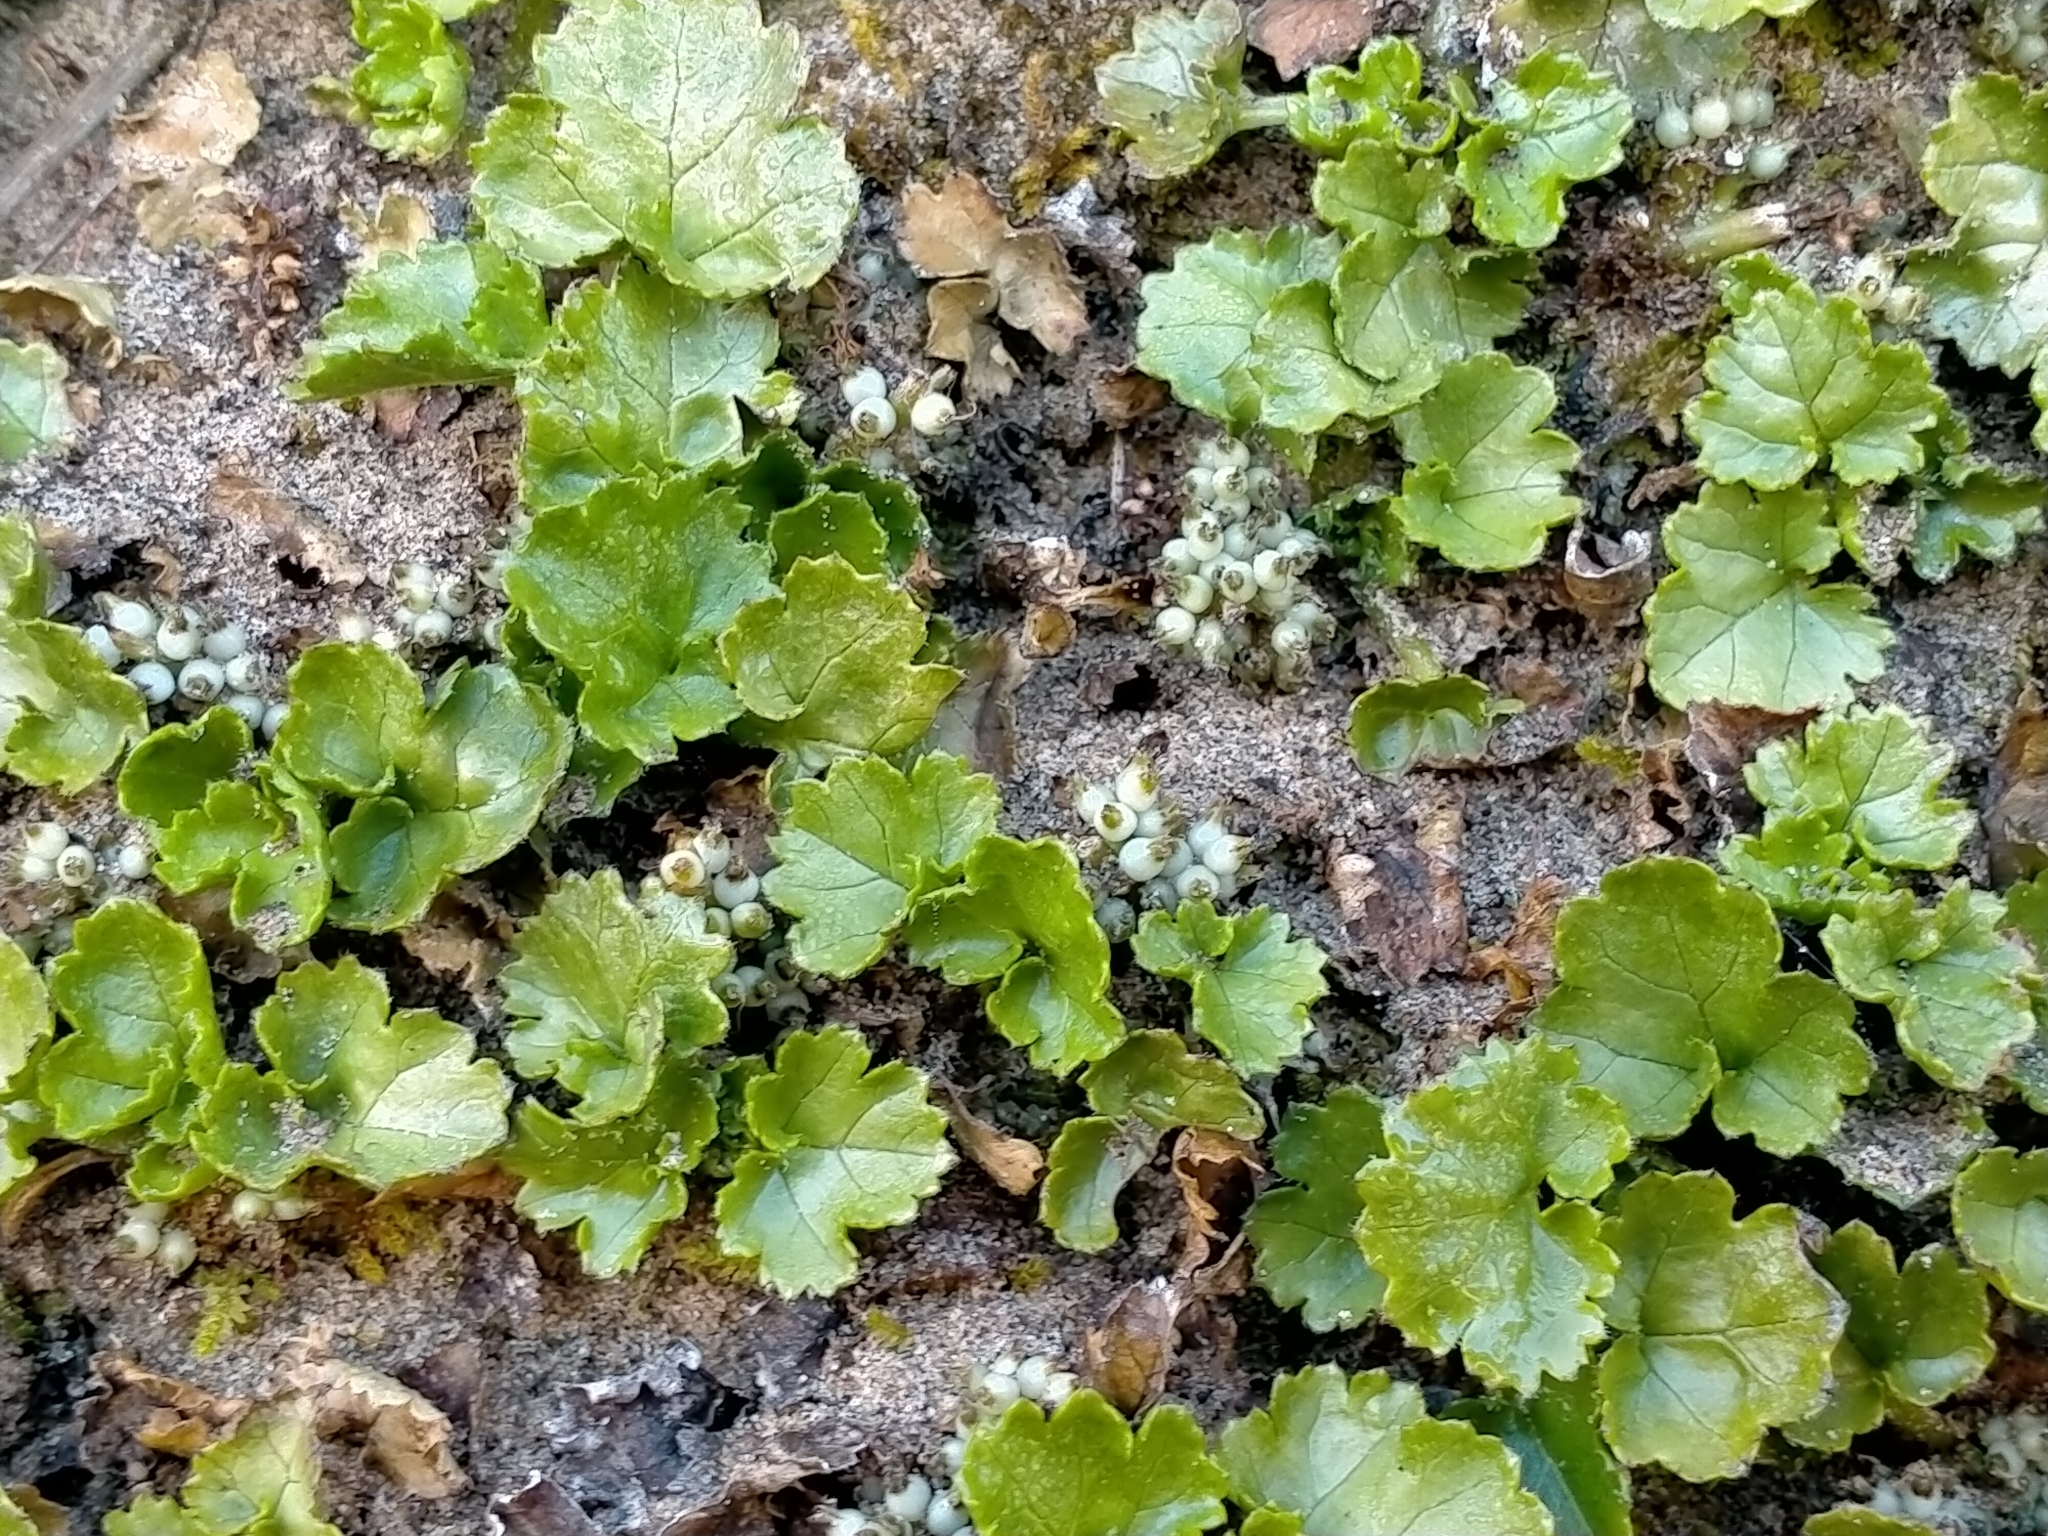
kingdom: Plantae
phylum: Tracheophyta
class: Magnoliopsida
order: Gunnerales
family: Gunneraceae
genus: Gunnera
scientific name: Gunnera monoica
